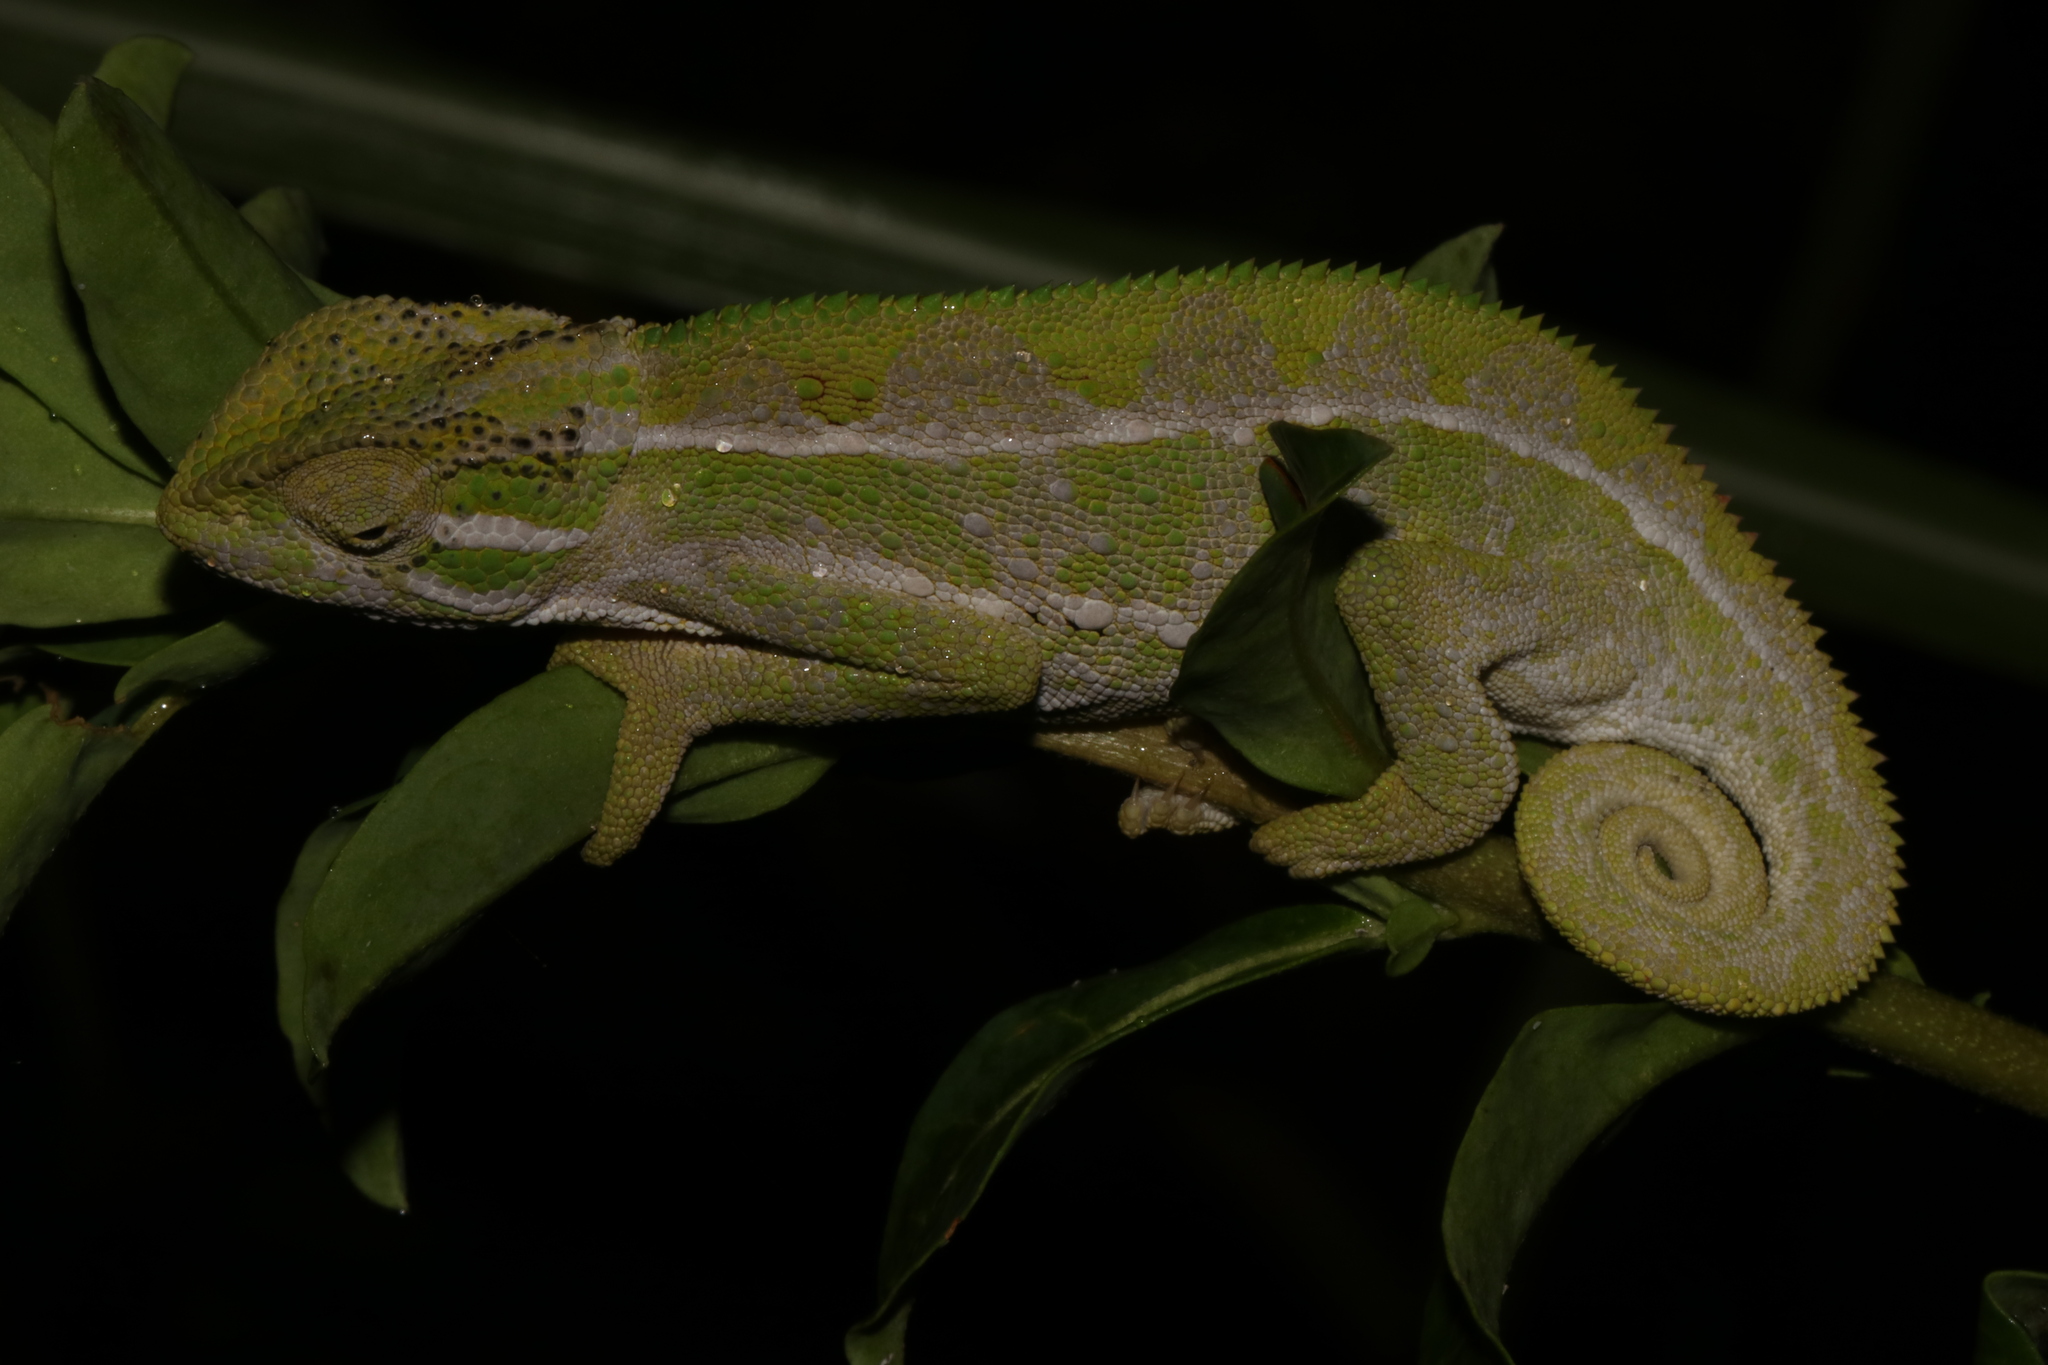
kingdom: Animalia
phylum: Chordata
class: Squamata
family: Chamaeleonidae
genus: Trioceros
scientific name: Trioceros goetzei
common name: Ilolo chameleon
